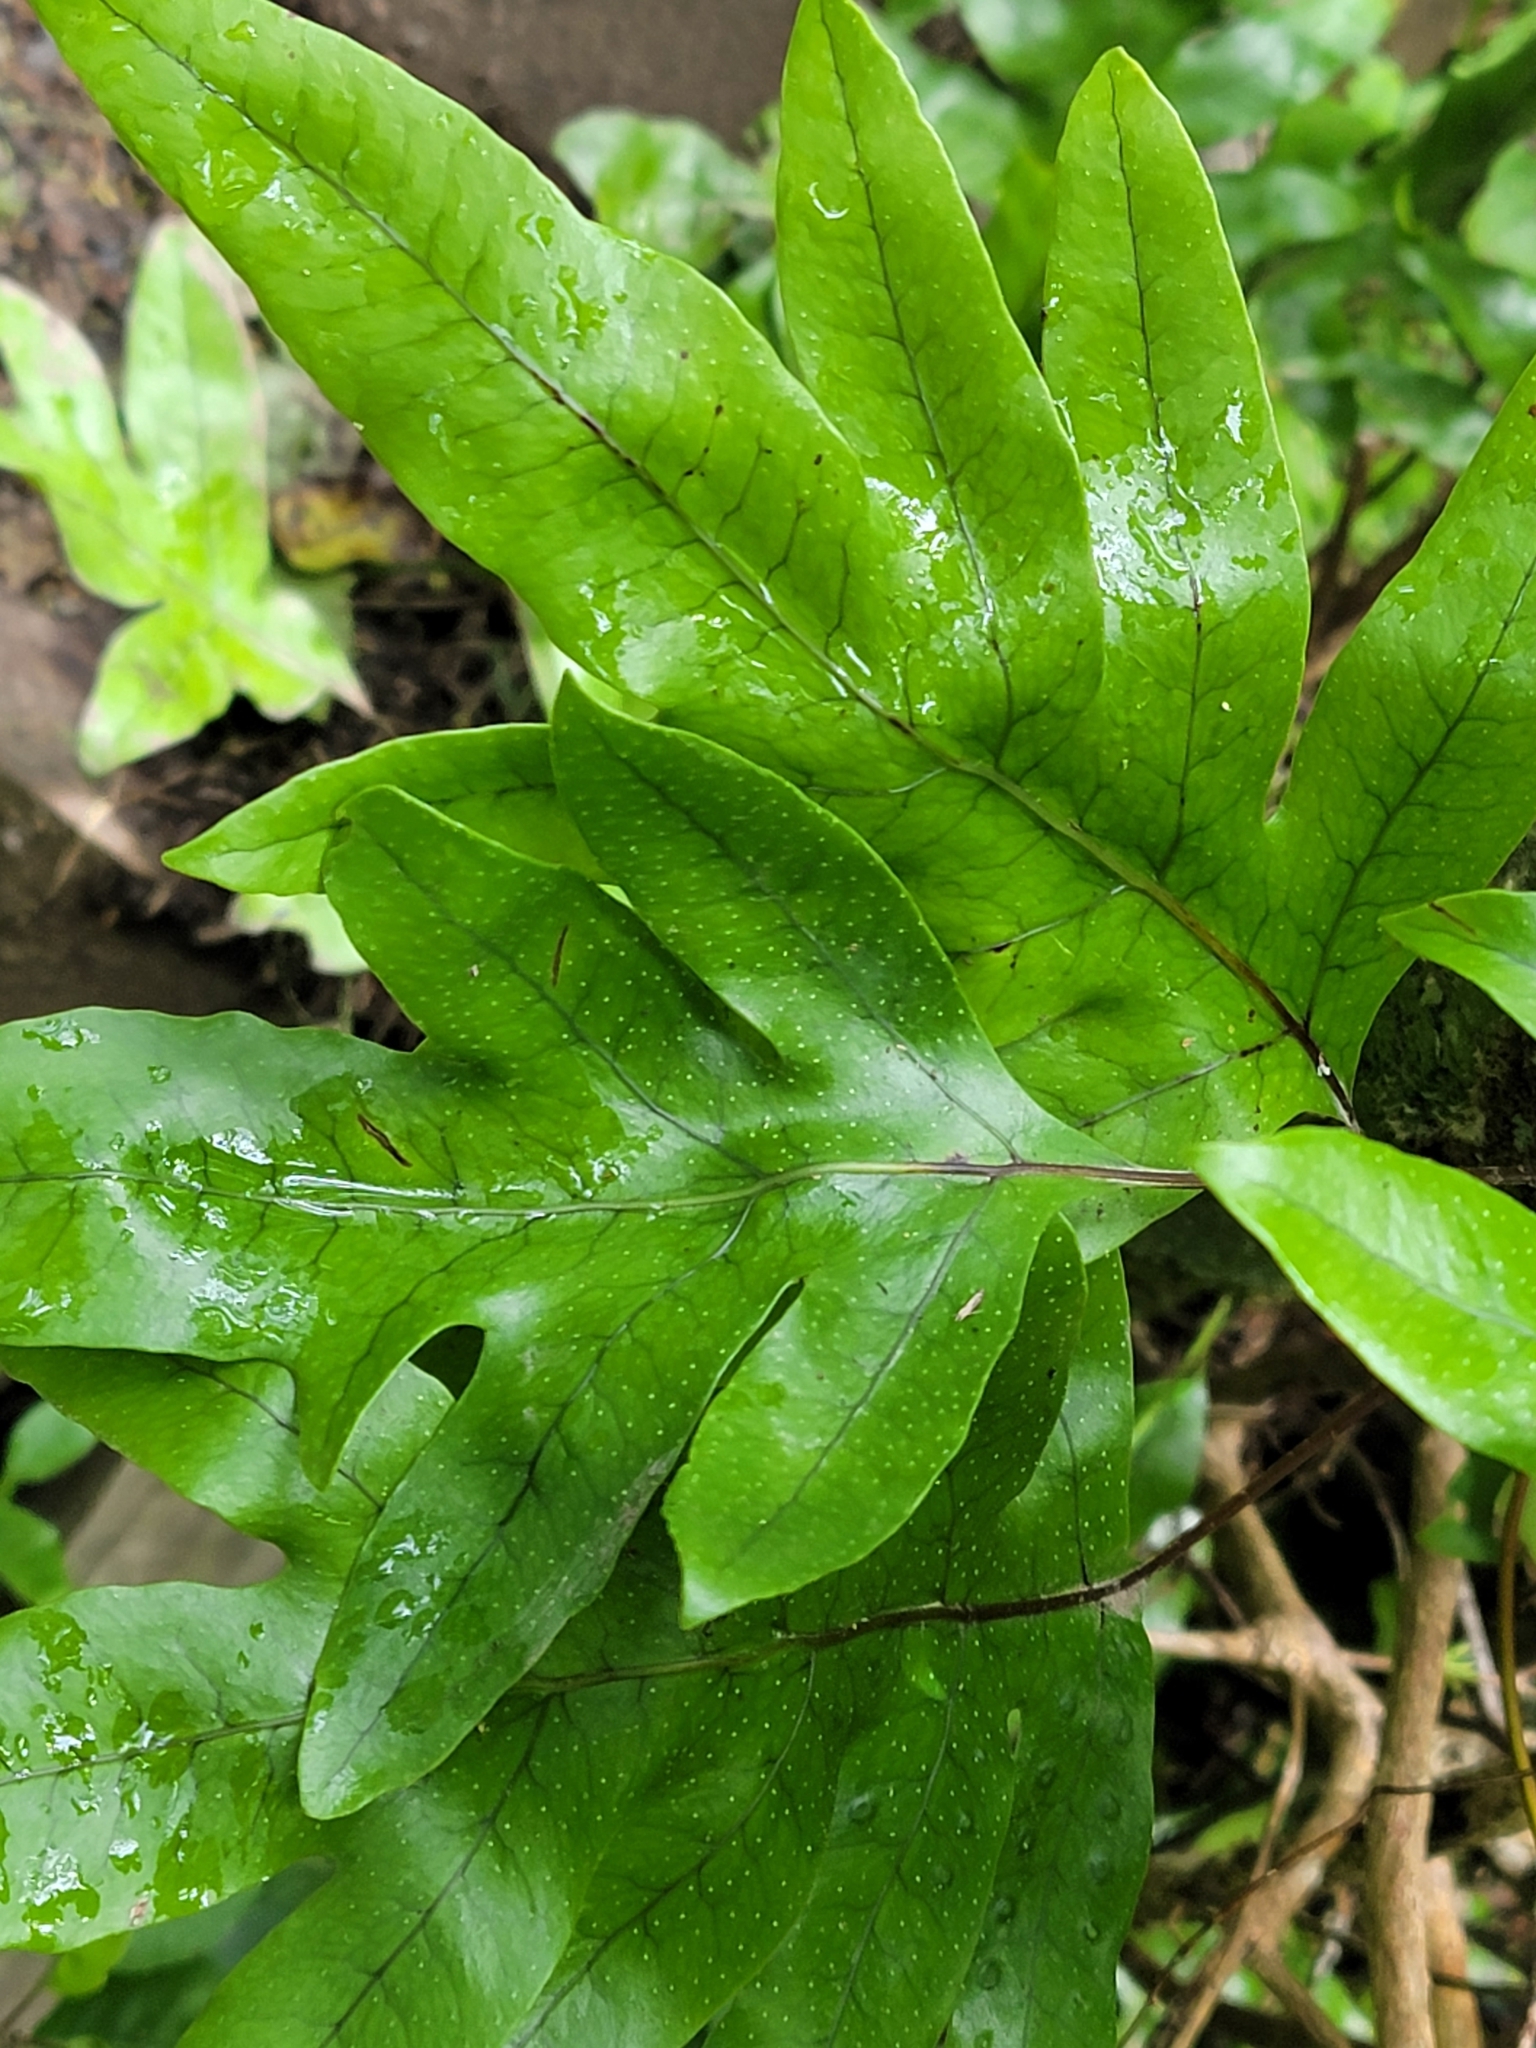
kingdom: Plantae
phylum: Tracheophyta
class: Polypodiopsida
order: Polypodiales
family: Polypodiaceae
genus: Lecanopteris
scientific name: Lecanopteris pustulata
